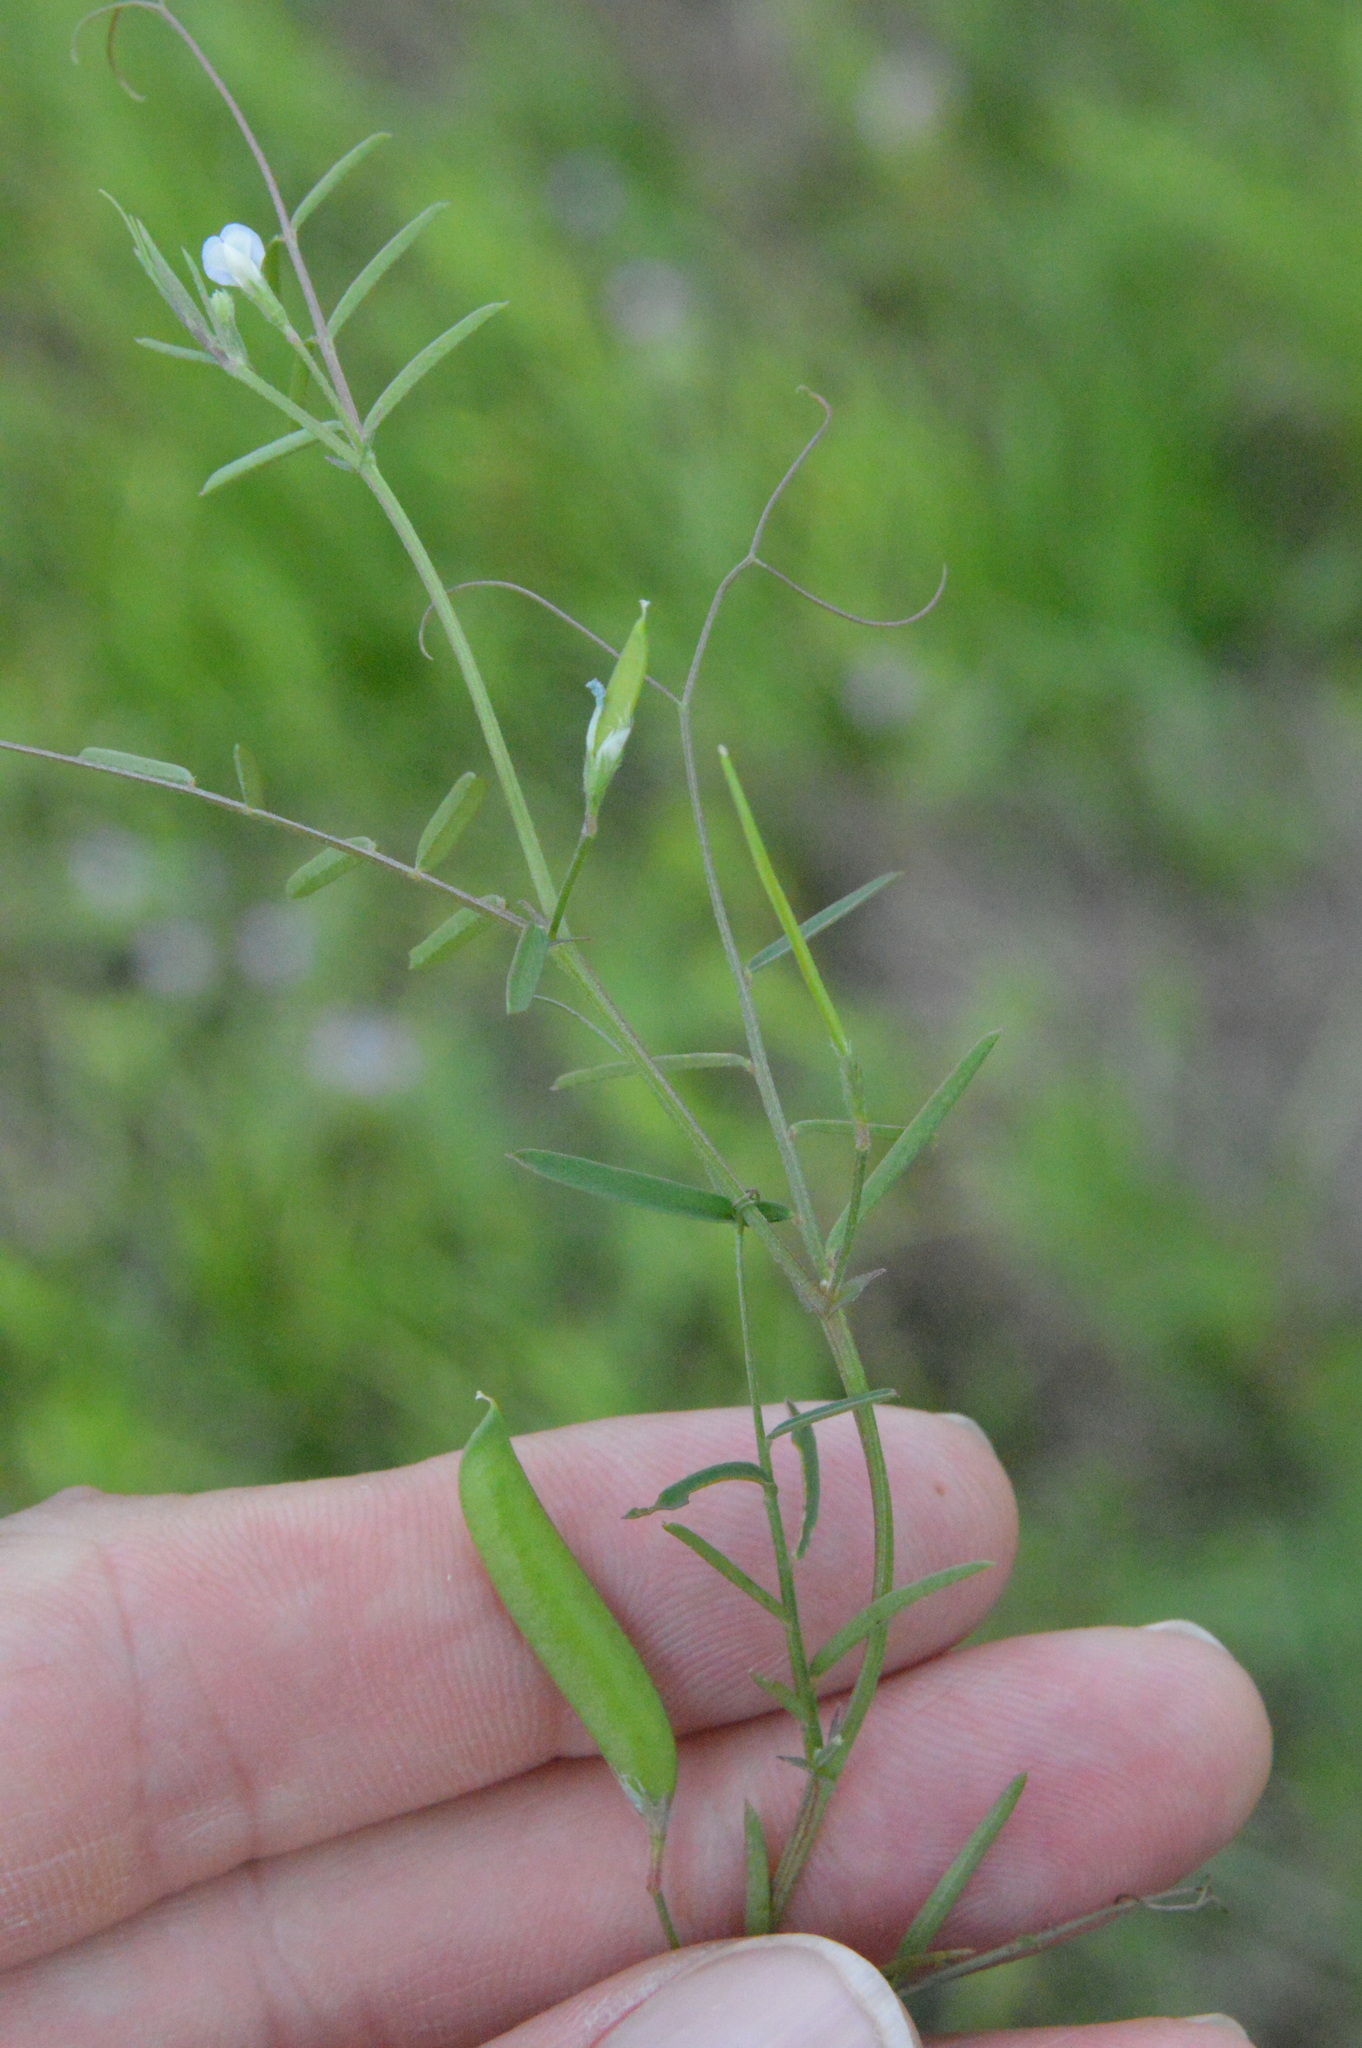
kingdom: Plantae
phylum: Tracheophyta
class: Magnoliopsida
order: Fabales
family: Fabaceae
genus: Vicia
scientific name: Vicia minutiflora
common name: Pygmy-flower vetch
